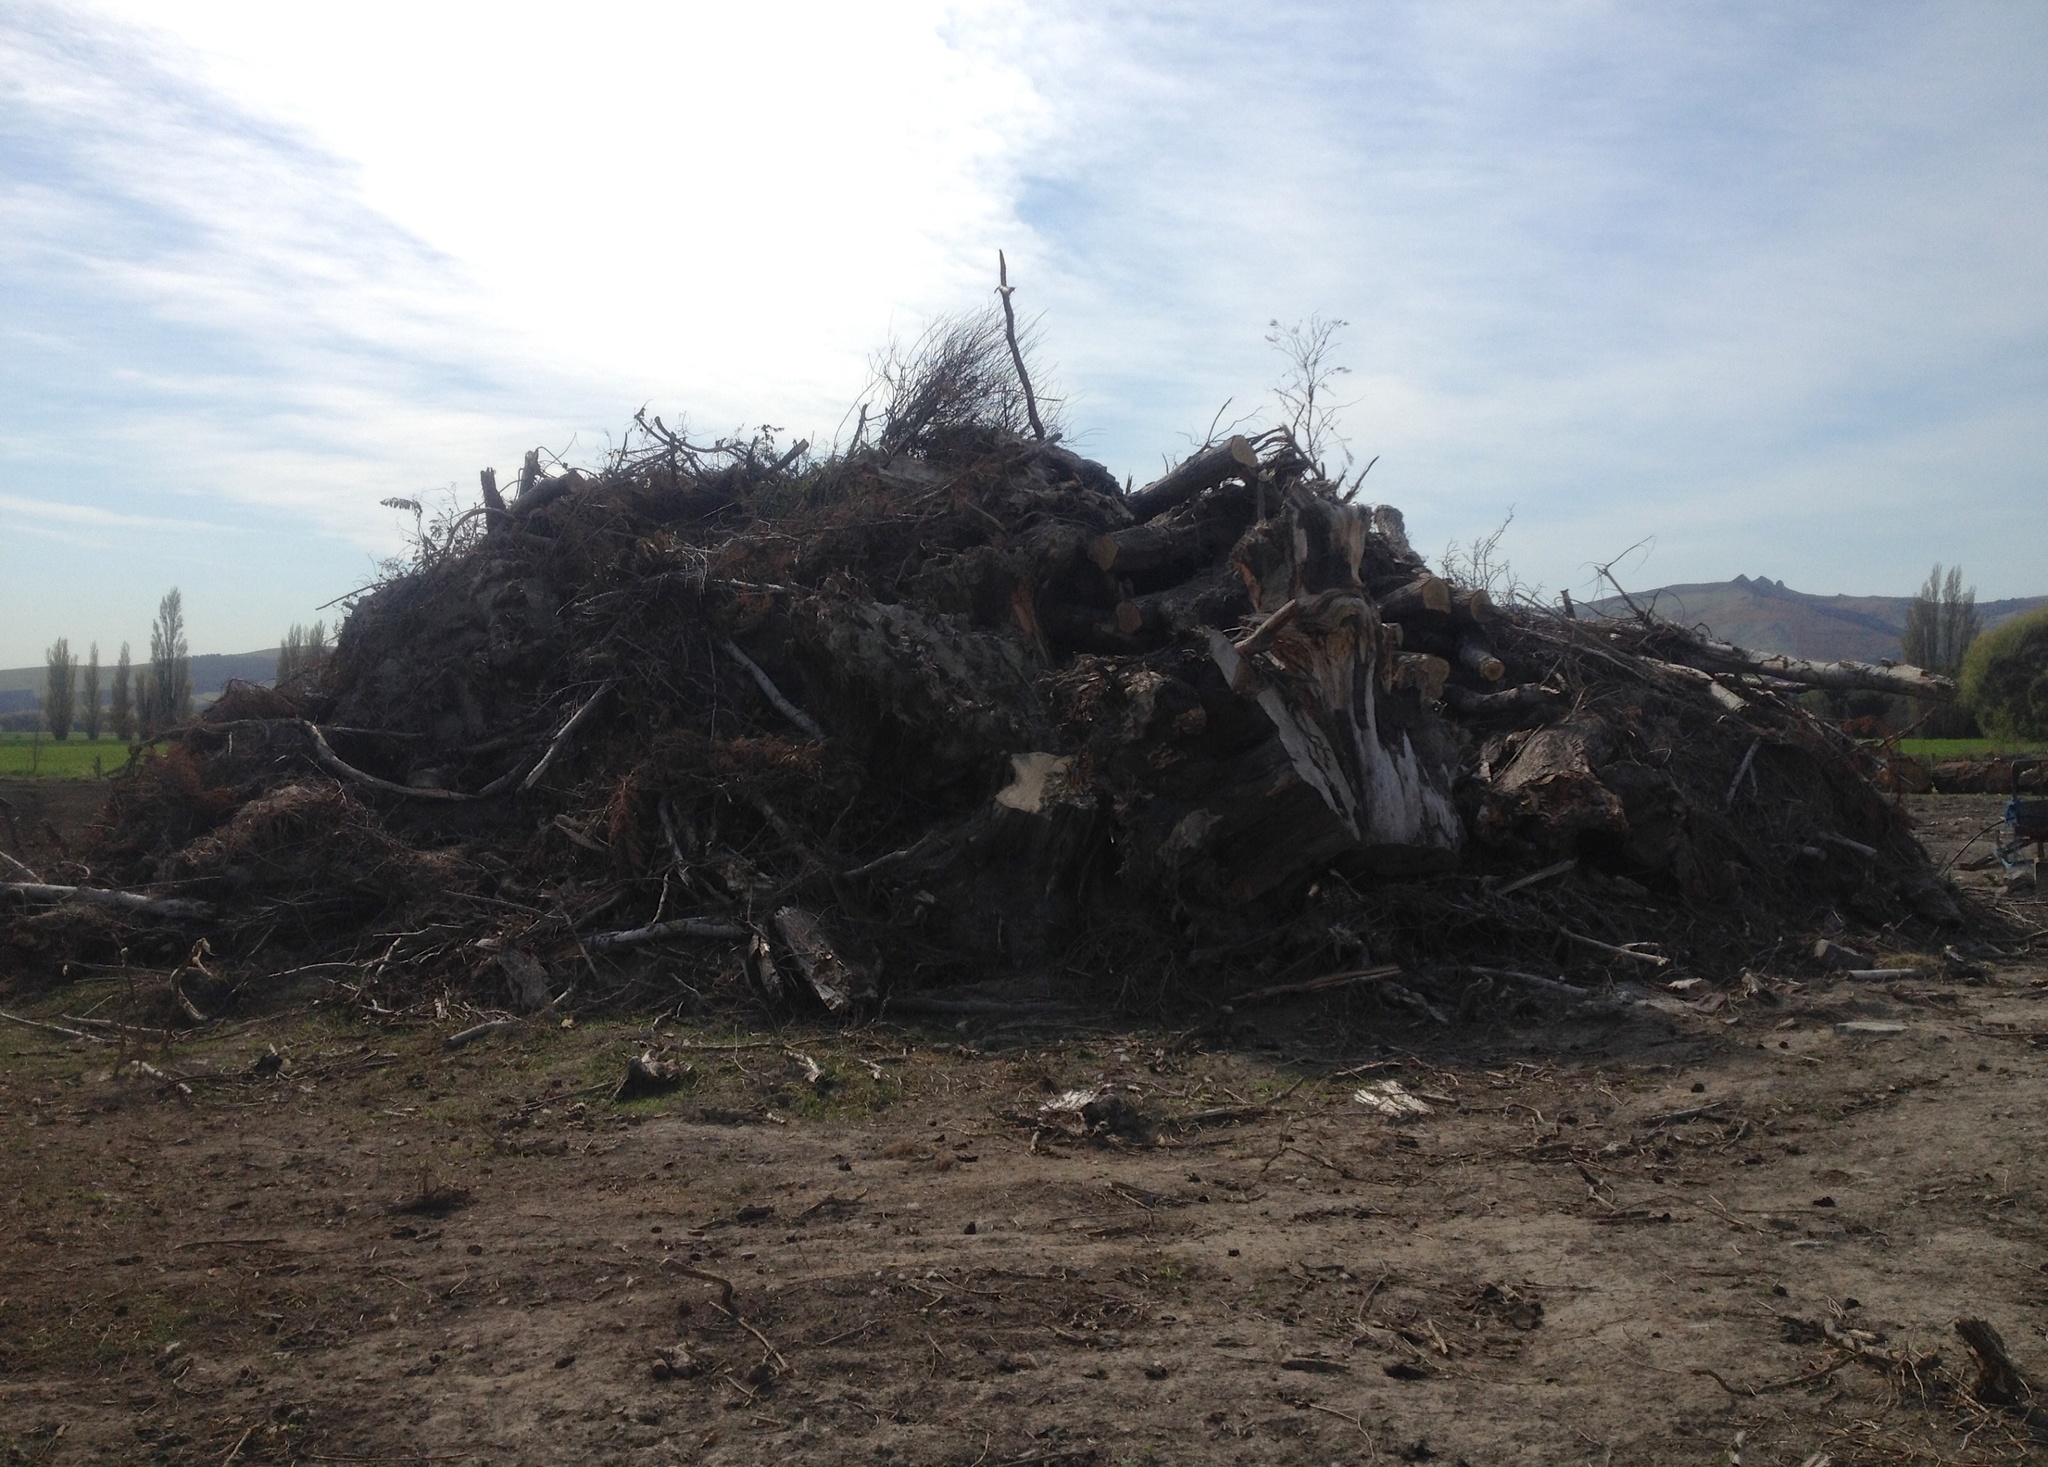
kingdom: Plantae
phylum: Tracheophyta
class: Pinopsida
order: Pinales
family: Cupressaceae
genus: Cupressus
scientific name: Cupressus macrocarpa
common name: Monterey cypress
